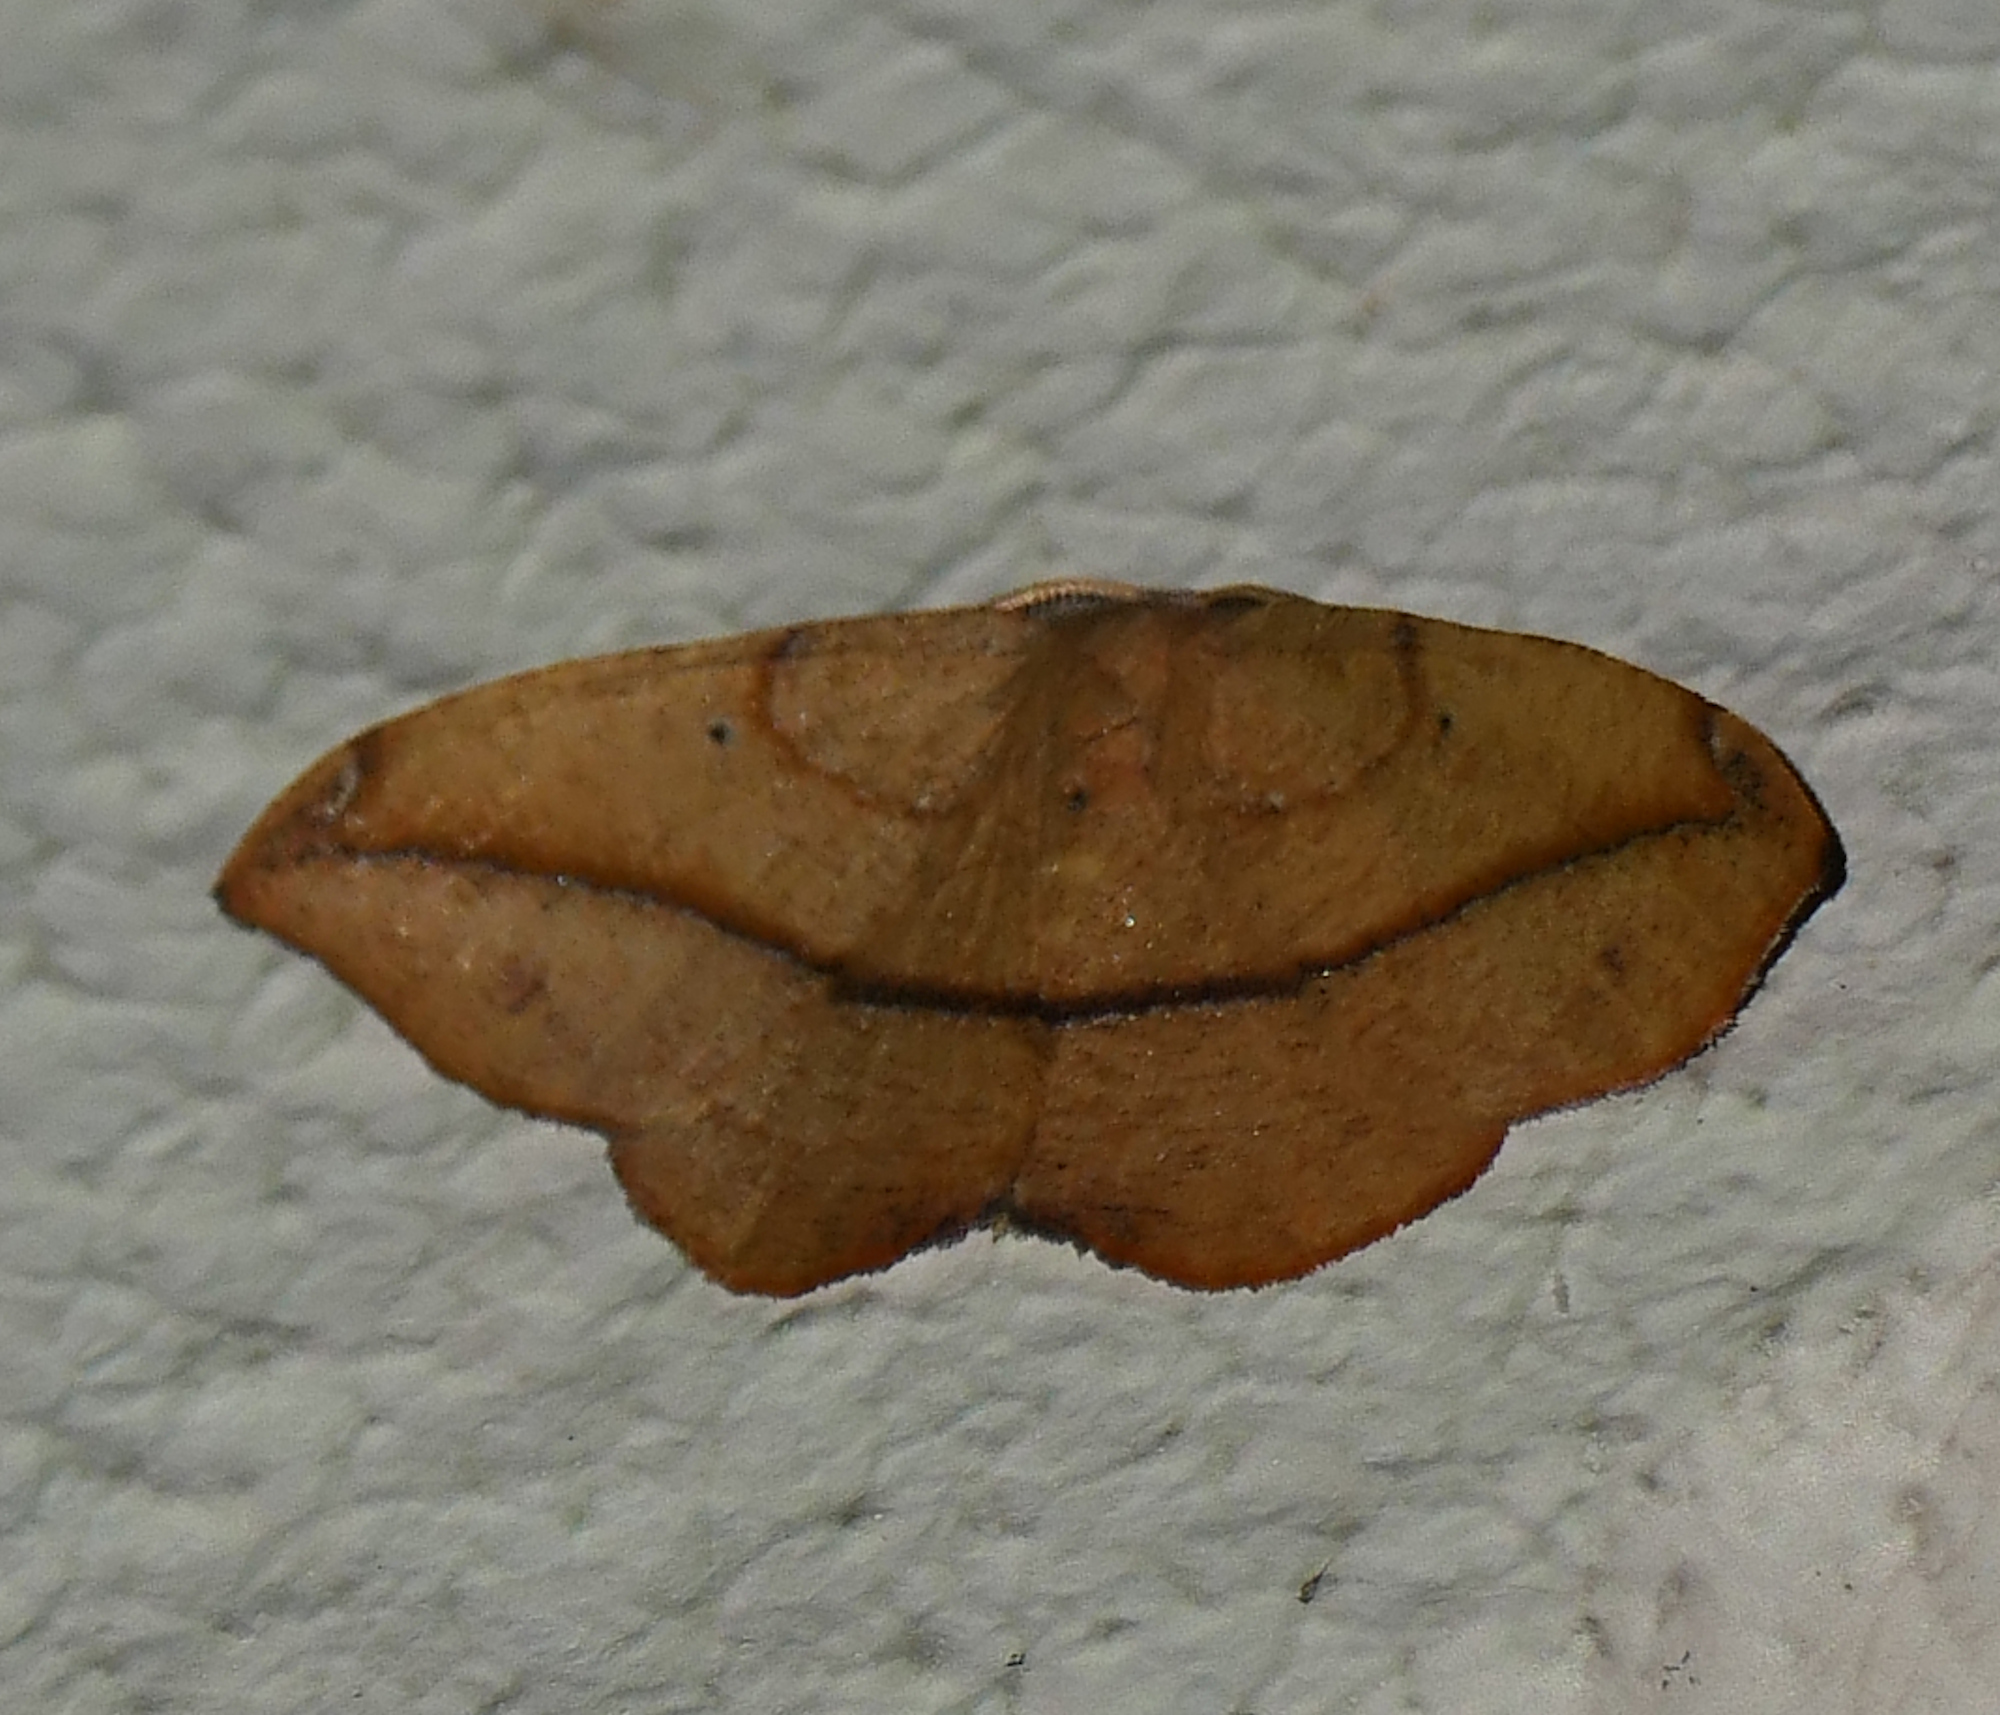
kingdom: Animalia
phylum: Arthropoda
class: Insecta
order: Lepidoptera
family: Geometridae
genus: Patalene
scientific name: Patalene olyzonaria
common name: Juniper geometer moth
